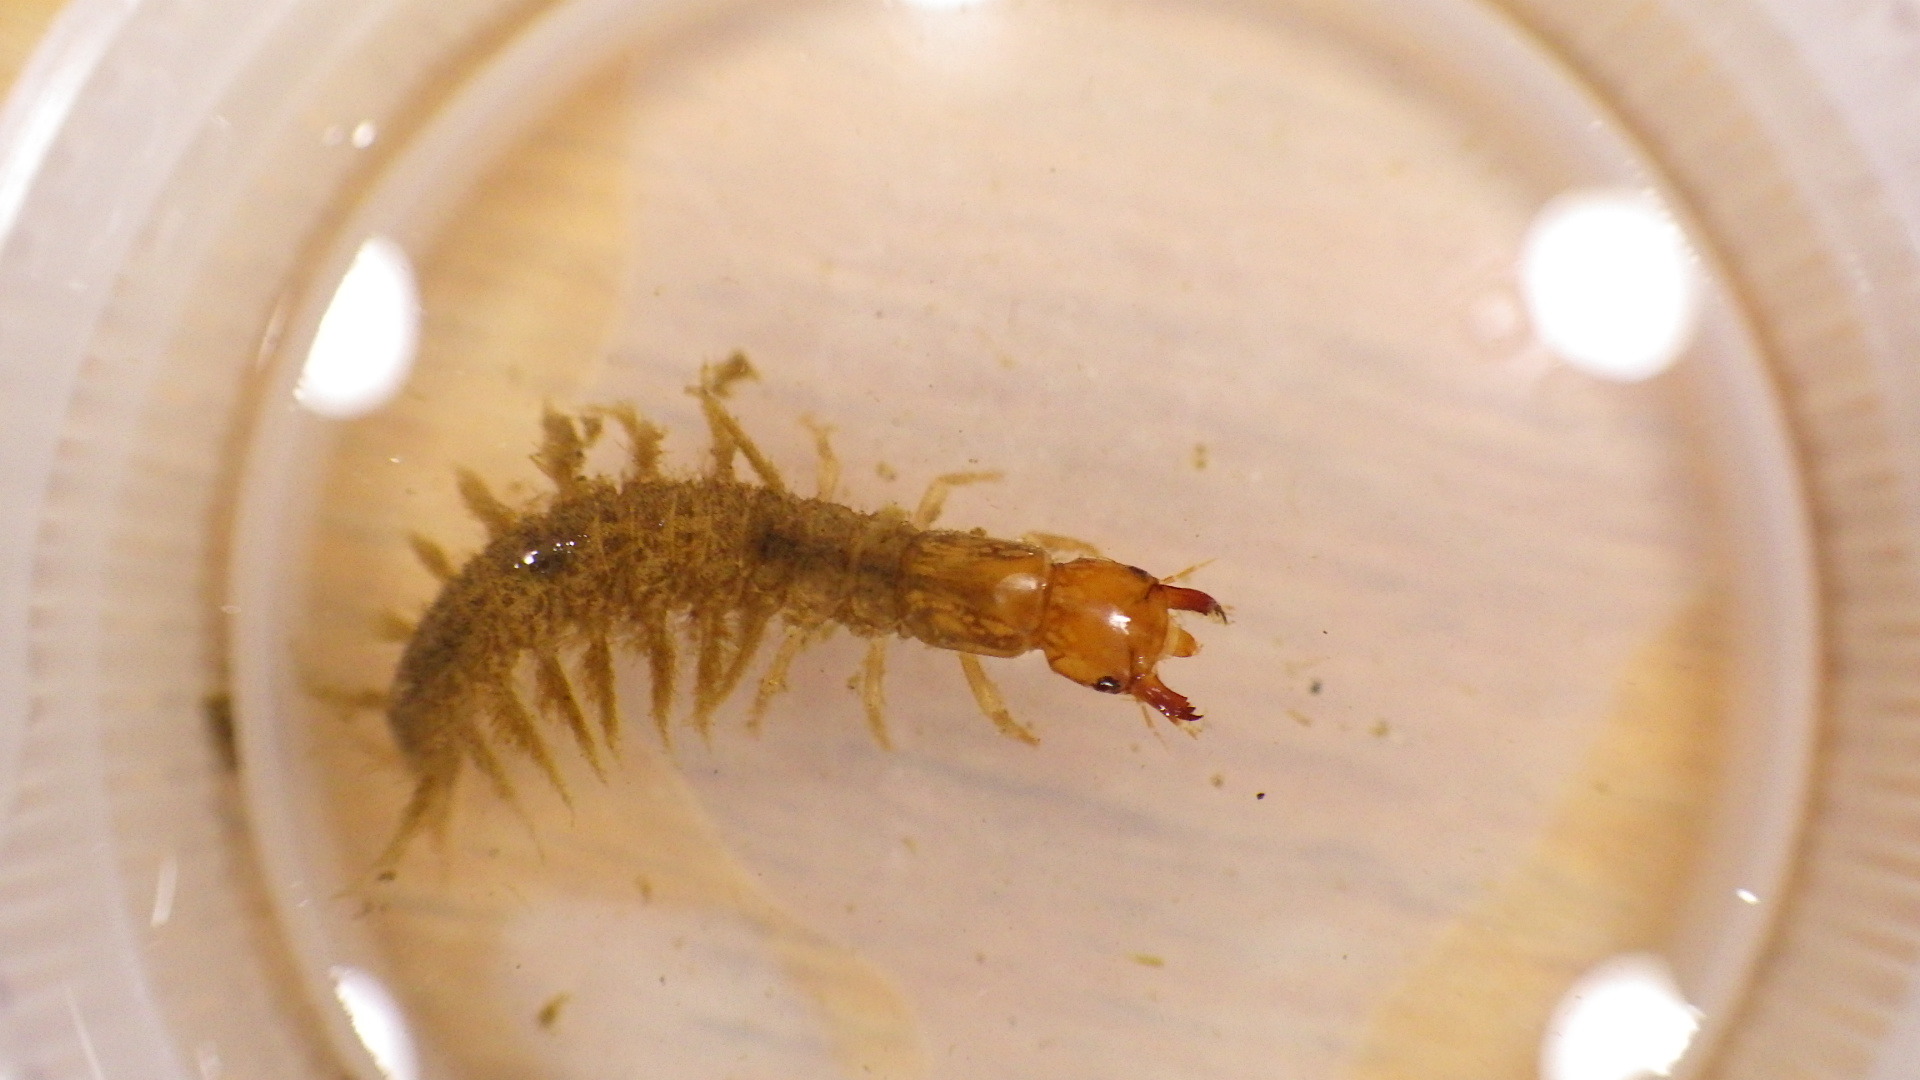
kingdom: Animalia
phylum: Arthropoda
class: Insecta
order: Megaloptera
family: Corydalidae
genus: Corydalus
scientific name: Corydalus cornutus
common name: Dobsonfly
